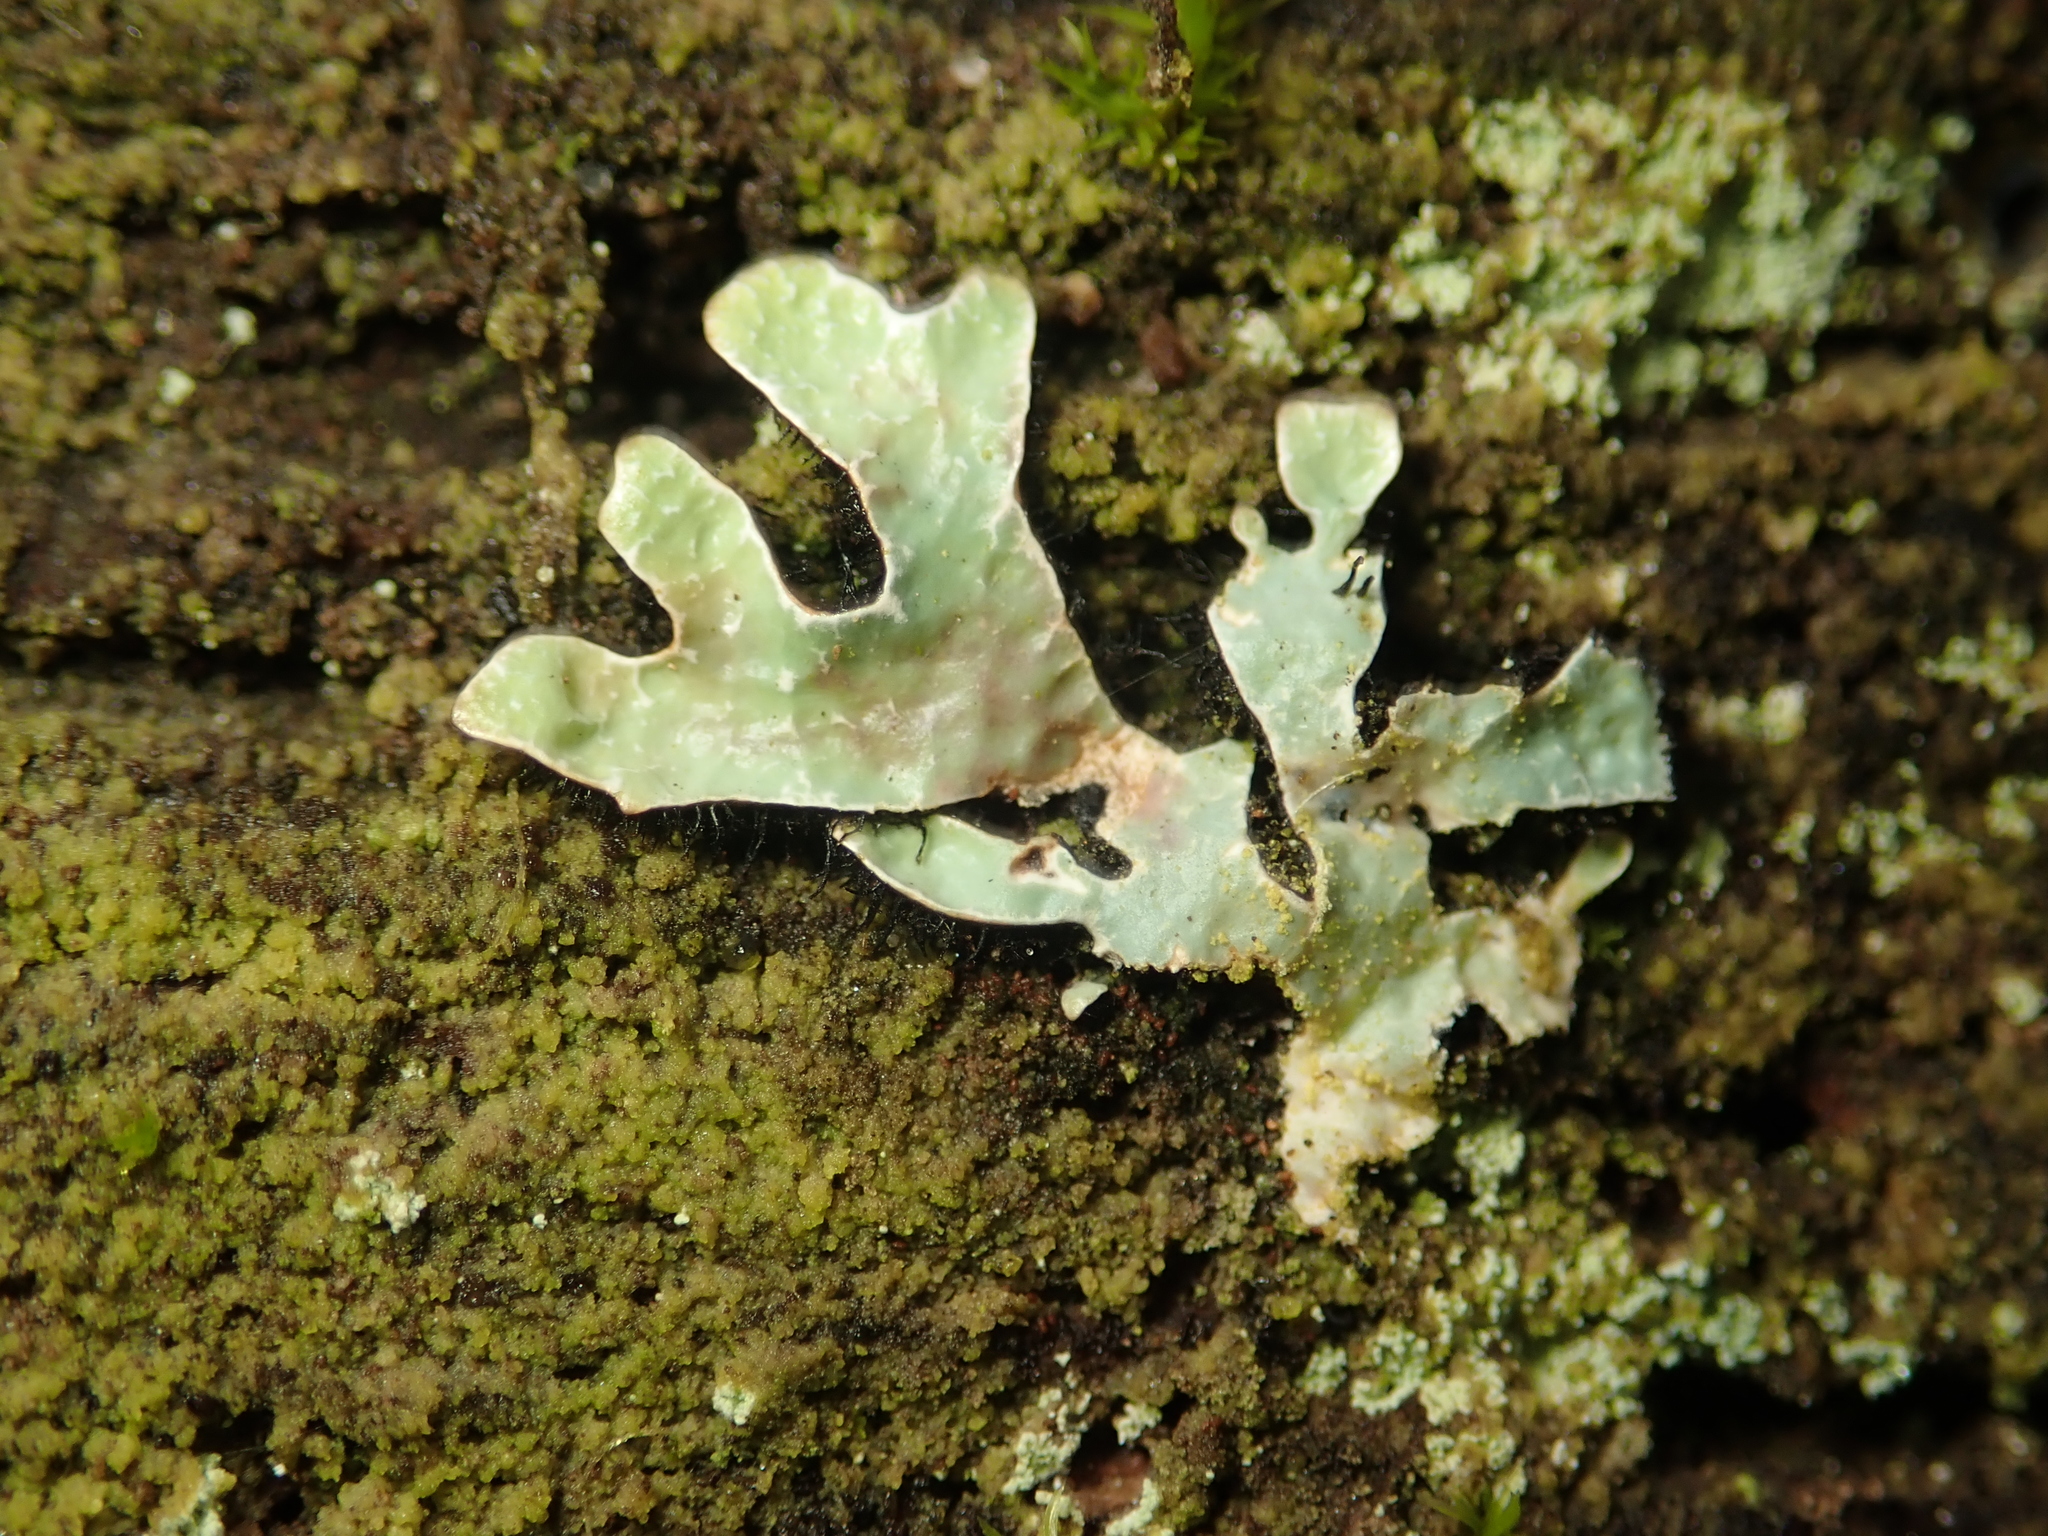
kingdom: Fungi
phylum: Ascomycota
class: Lecanoromycetes
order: Lecanorales
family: Parmeliaceae
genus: Parmelia
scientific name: Parmelia sulcata
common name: Netted shield lichen
